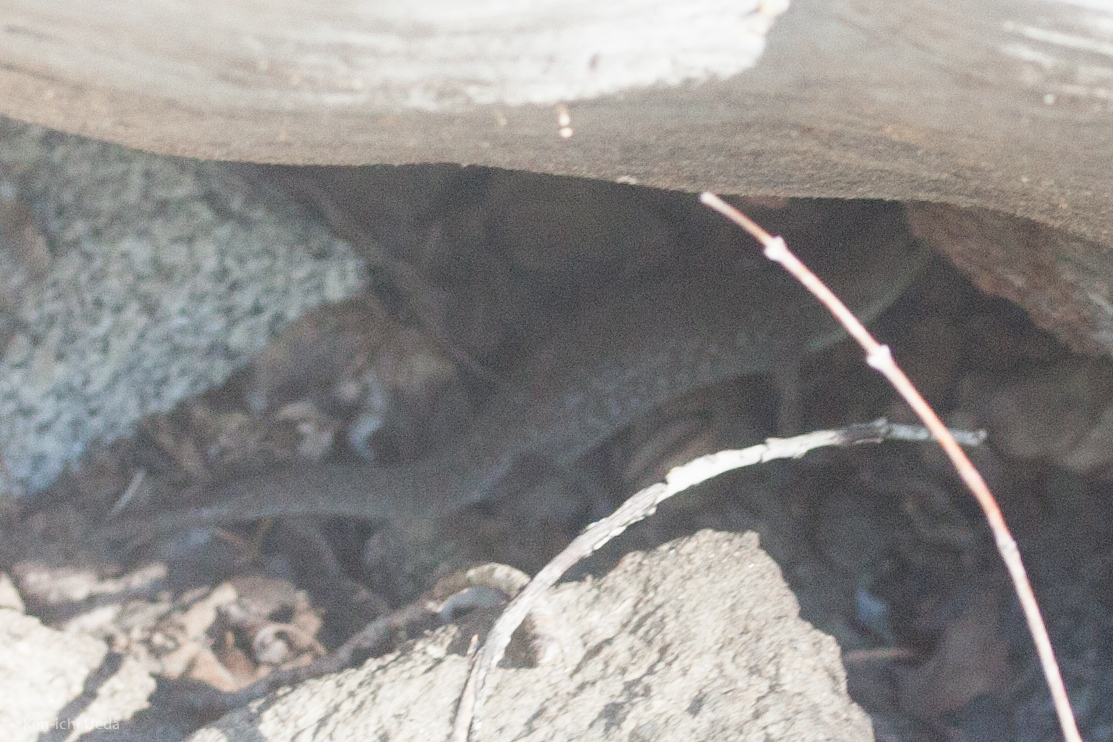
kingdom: Animalia
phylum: Chordata
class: Squamata
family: Anguidae
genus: Elgaria
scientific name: Elgaria coerulea
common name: Northern alligator lizard
